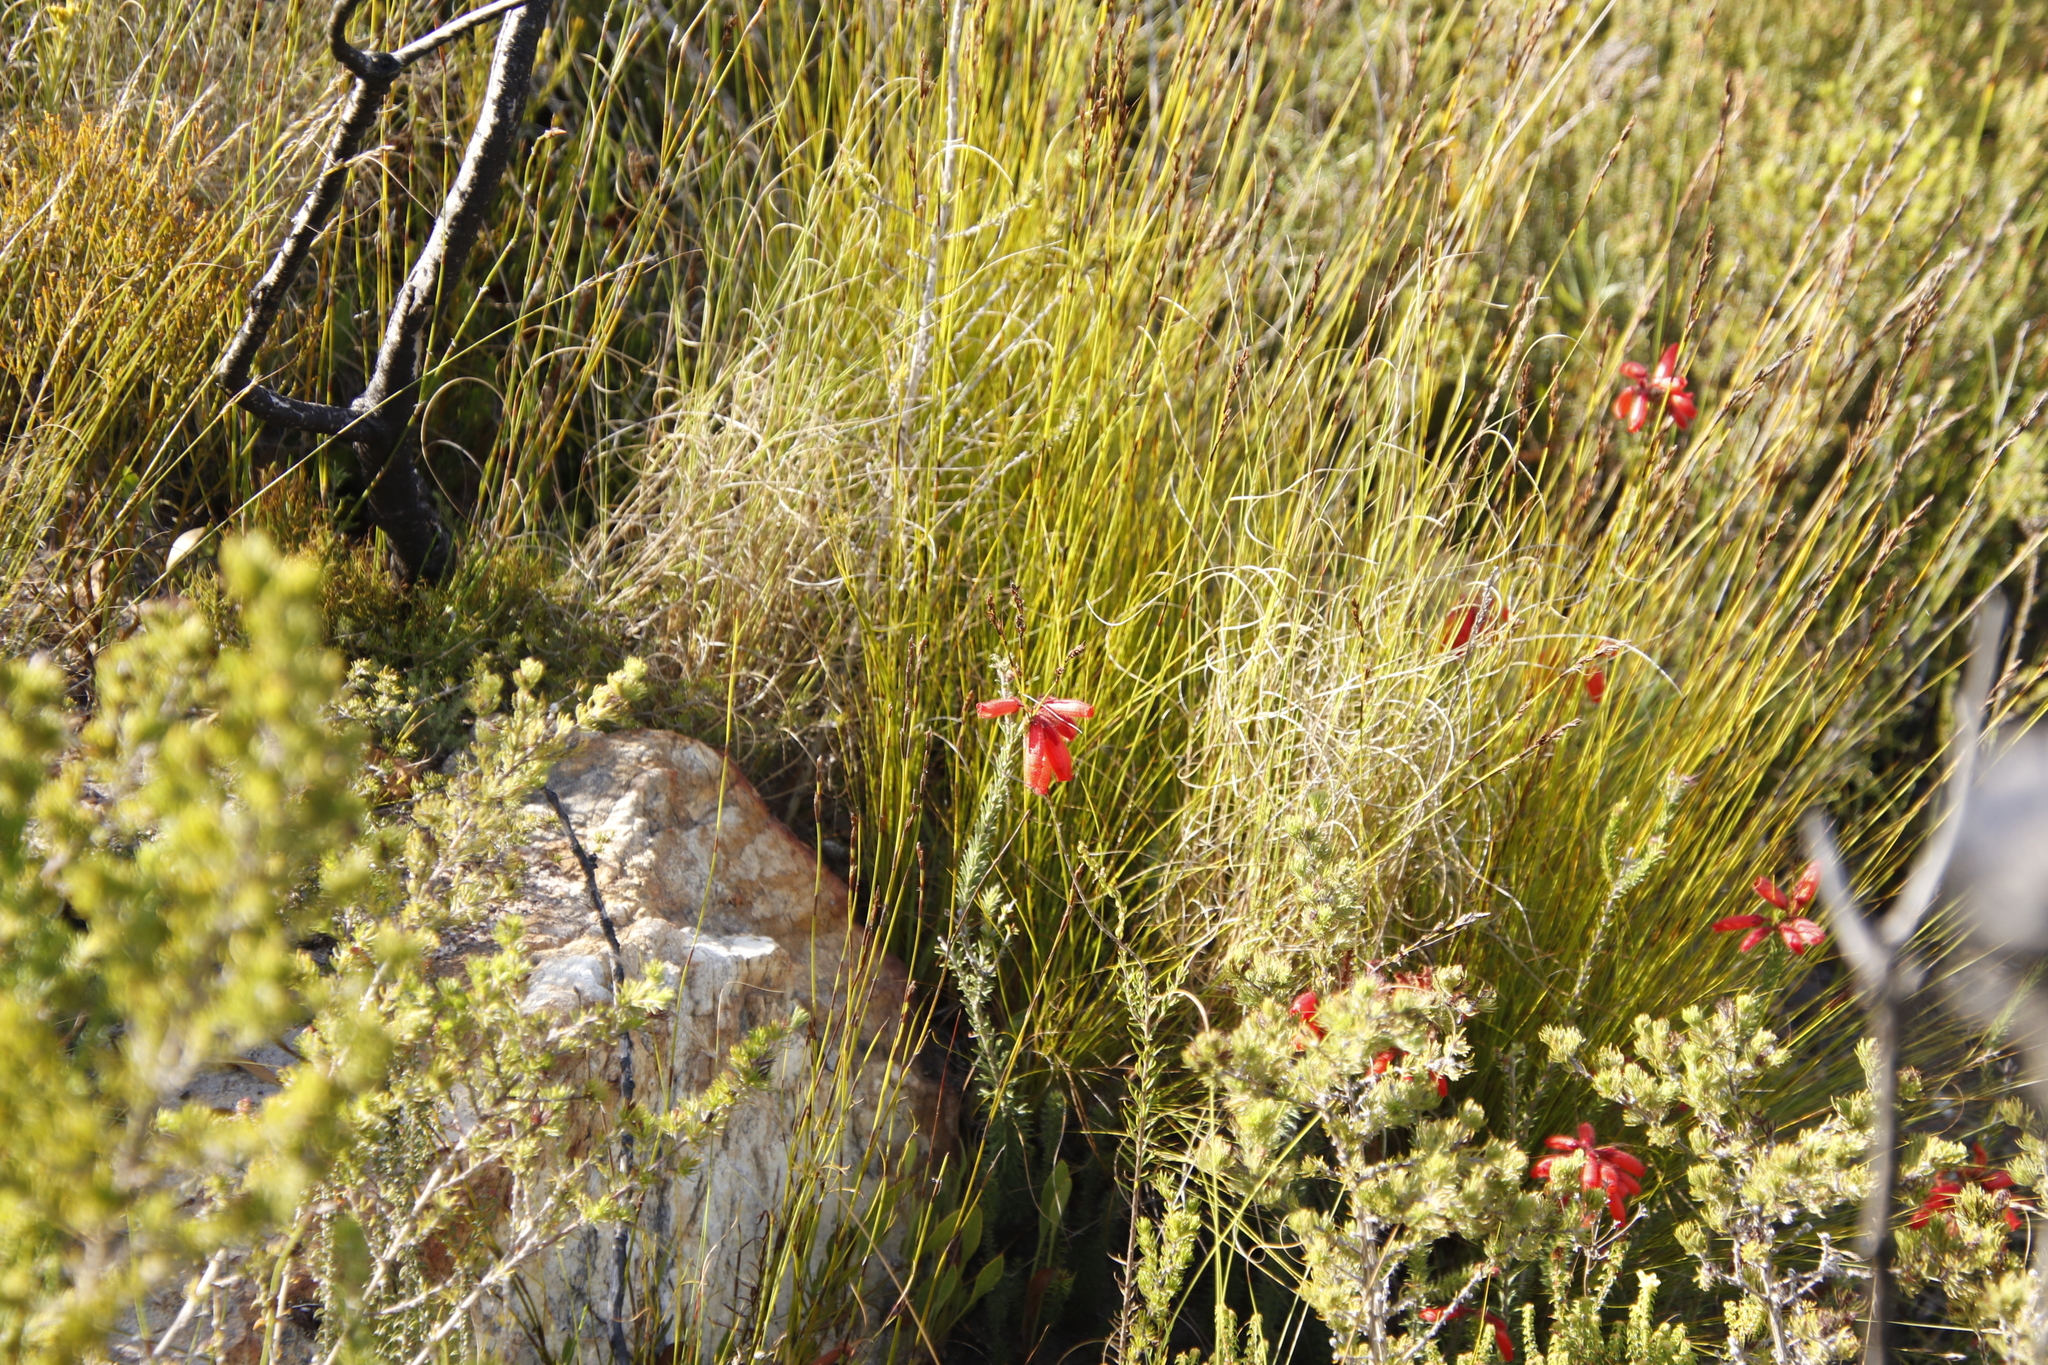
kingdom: Plantae
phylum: Tracheophyta
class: Magnoliopsida
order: Ericales
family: Ericaceae
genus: Erica
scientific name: Erica cerinthoides
